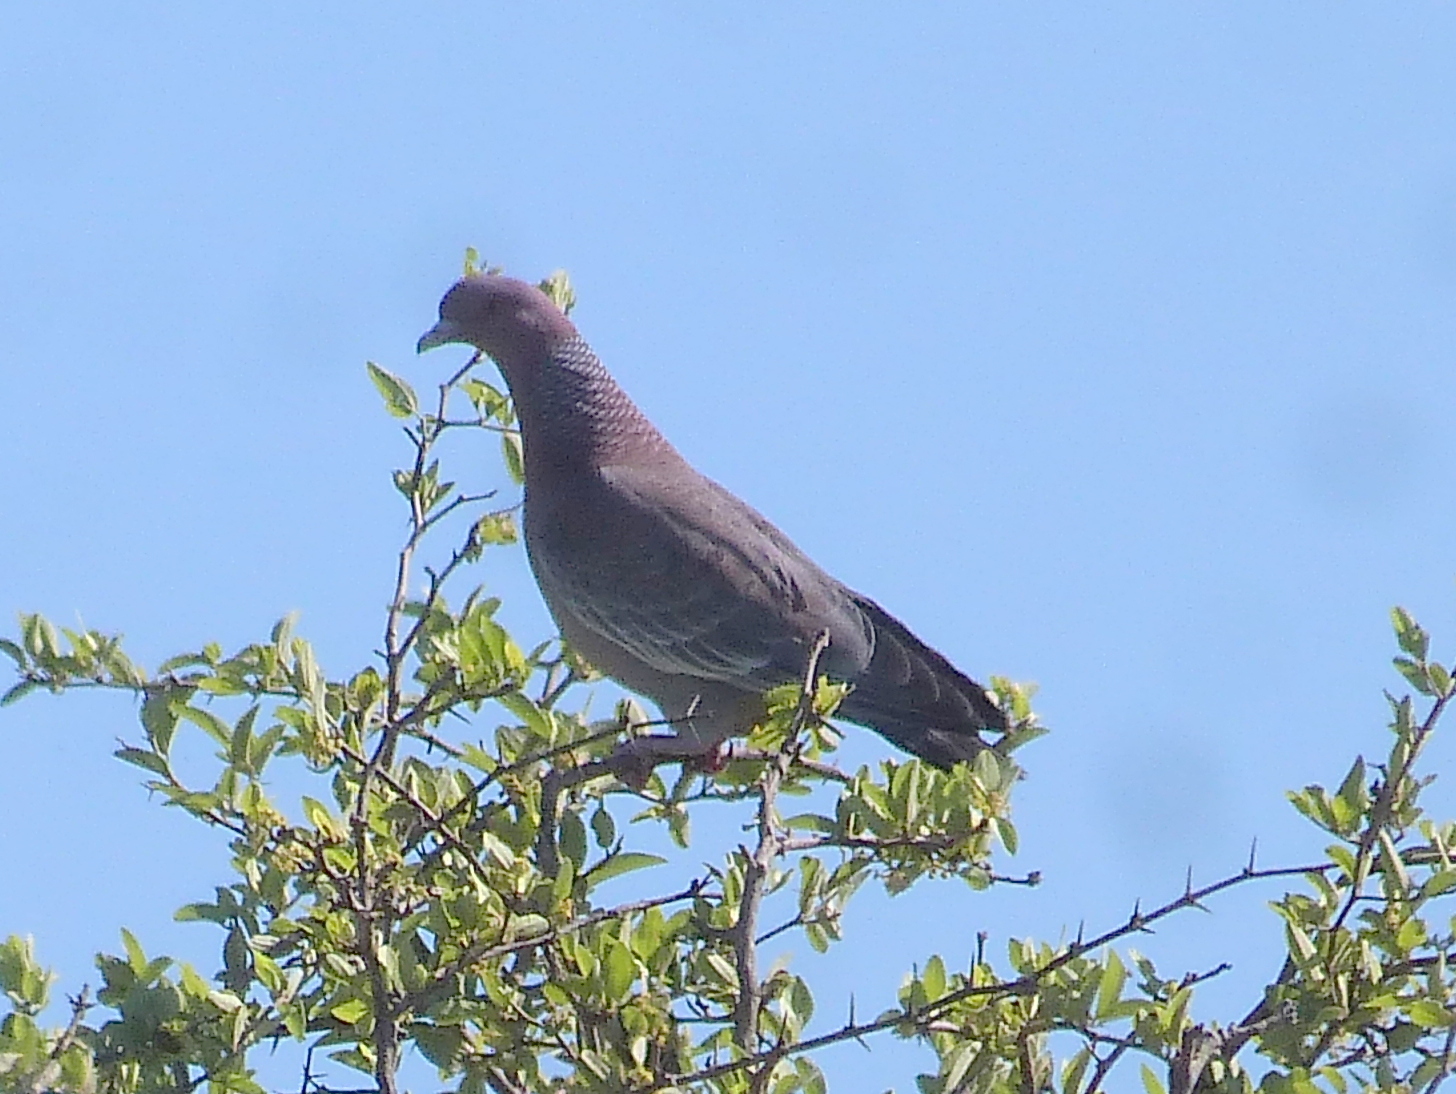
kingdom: Animalia
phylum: Chordata
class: Aves
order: Columbiformes
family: Columbidae
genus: Patagioenas
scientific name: Patagioenas picazuro
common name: Picazuro pigeon
